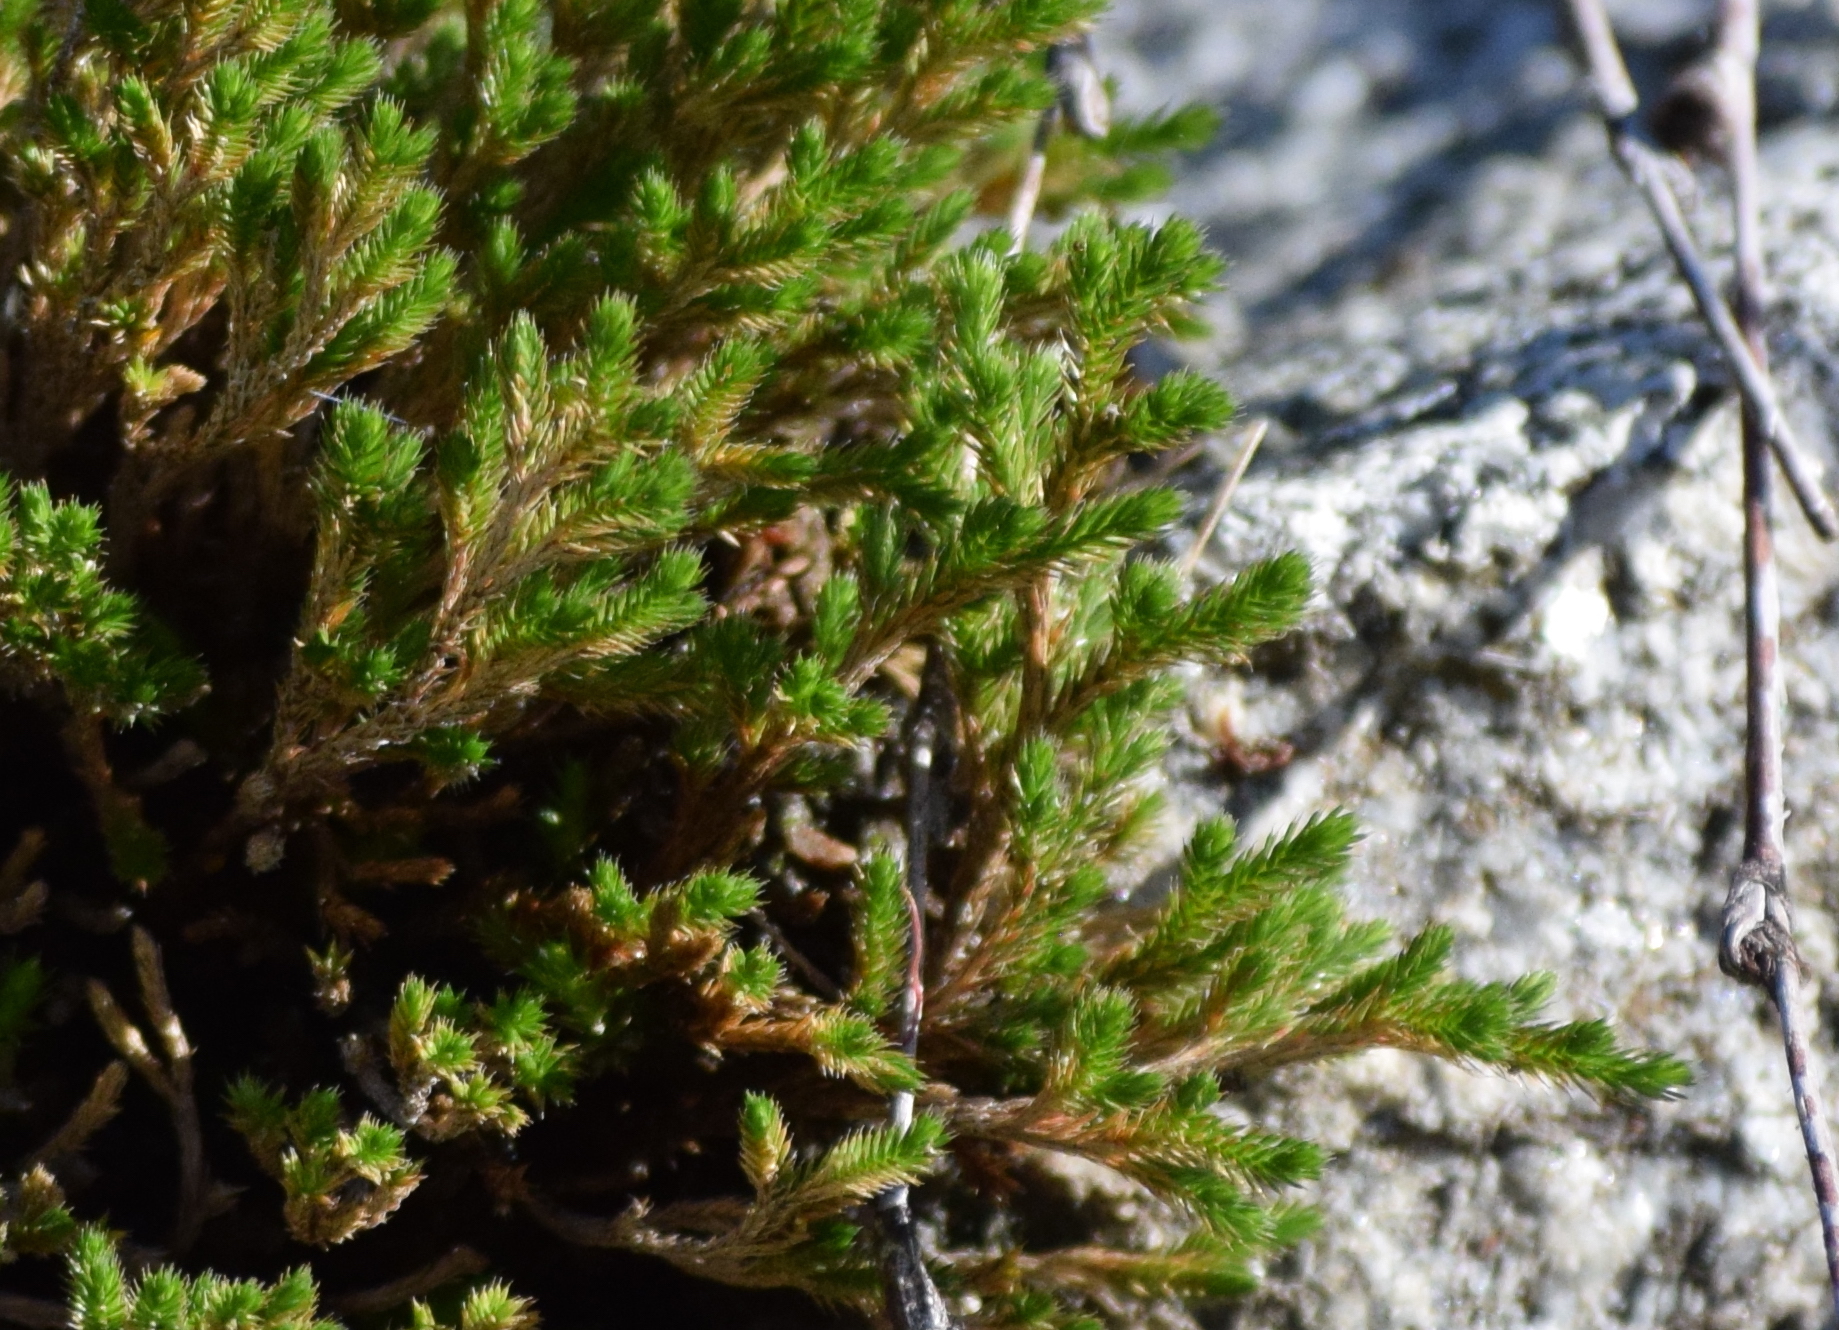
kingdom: Plantae
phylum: Tracheophyta
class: Lycopodiopsida
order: Selaginellales
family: Selaginellaceae
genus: Selaginella
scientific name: Selaginella bigelovii
